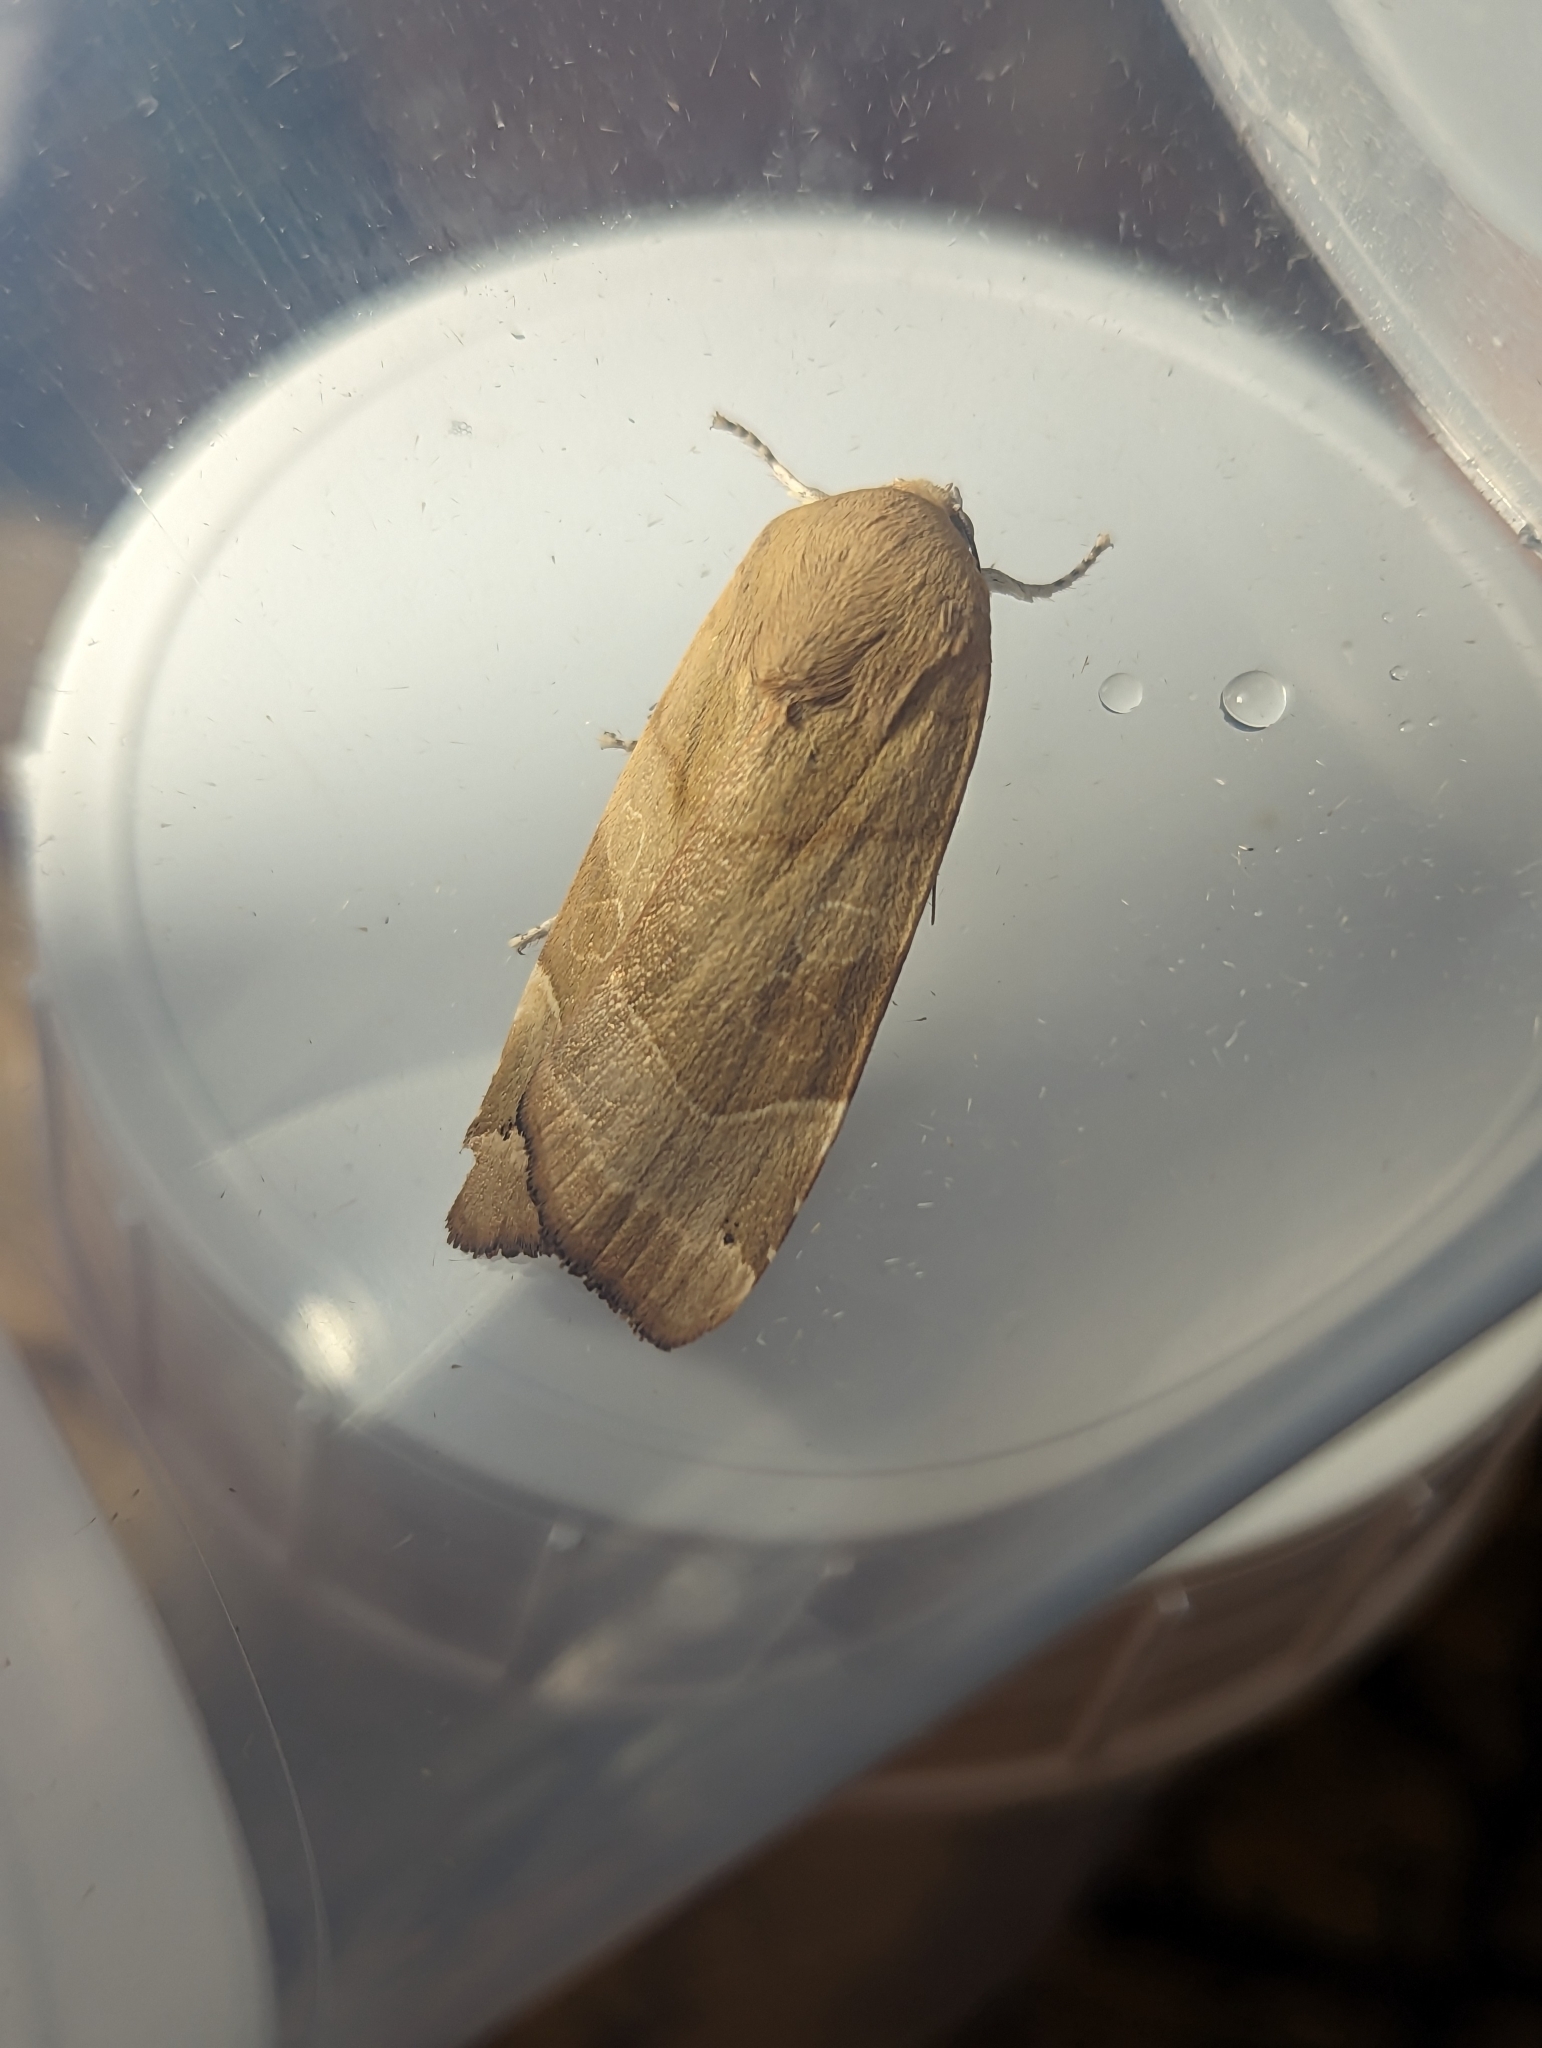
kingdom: Animalia
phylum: Arthropoda
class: Insecta
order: Lepidoptera
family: Noctuidae
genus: Noctua
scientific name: Noctua fimbriata
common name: Broad-bordered yellow underwing
